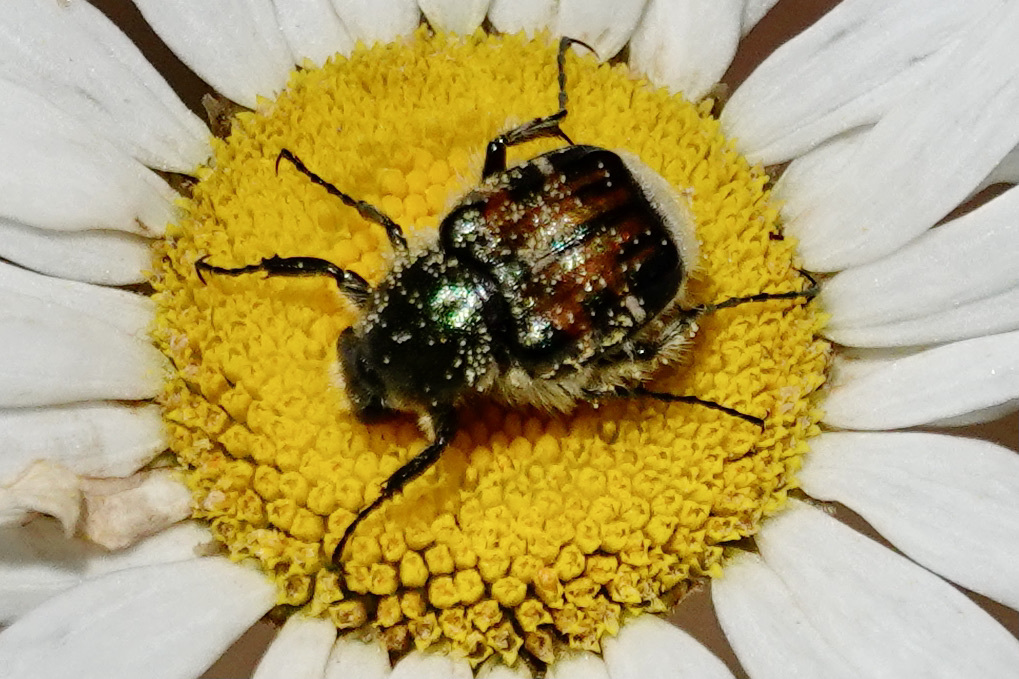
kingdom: Animalia
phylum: Arthropoda
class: Insecta
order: Coleoptera
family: Scarabaeidae
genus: Trichiotinus
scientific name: Trichiotinus affinis
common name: Hairy flower scarab
